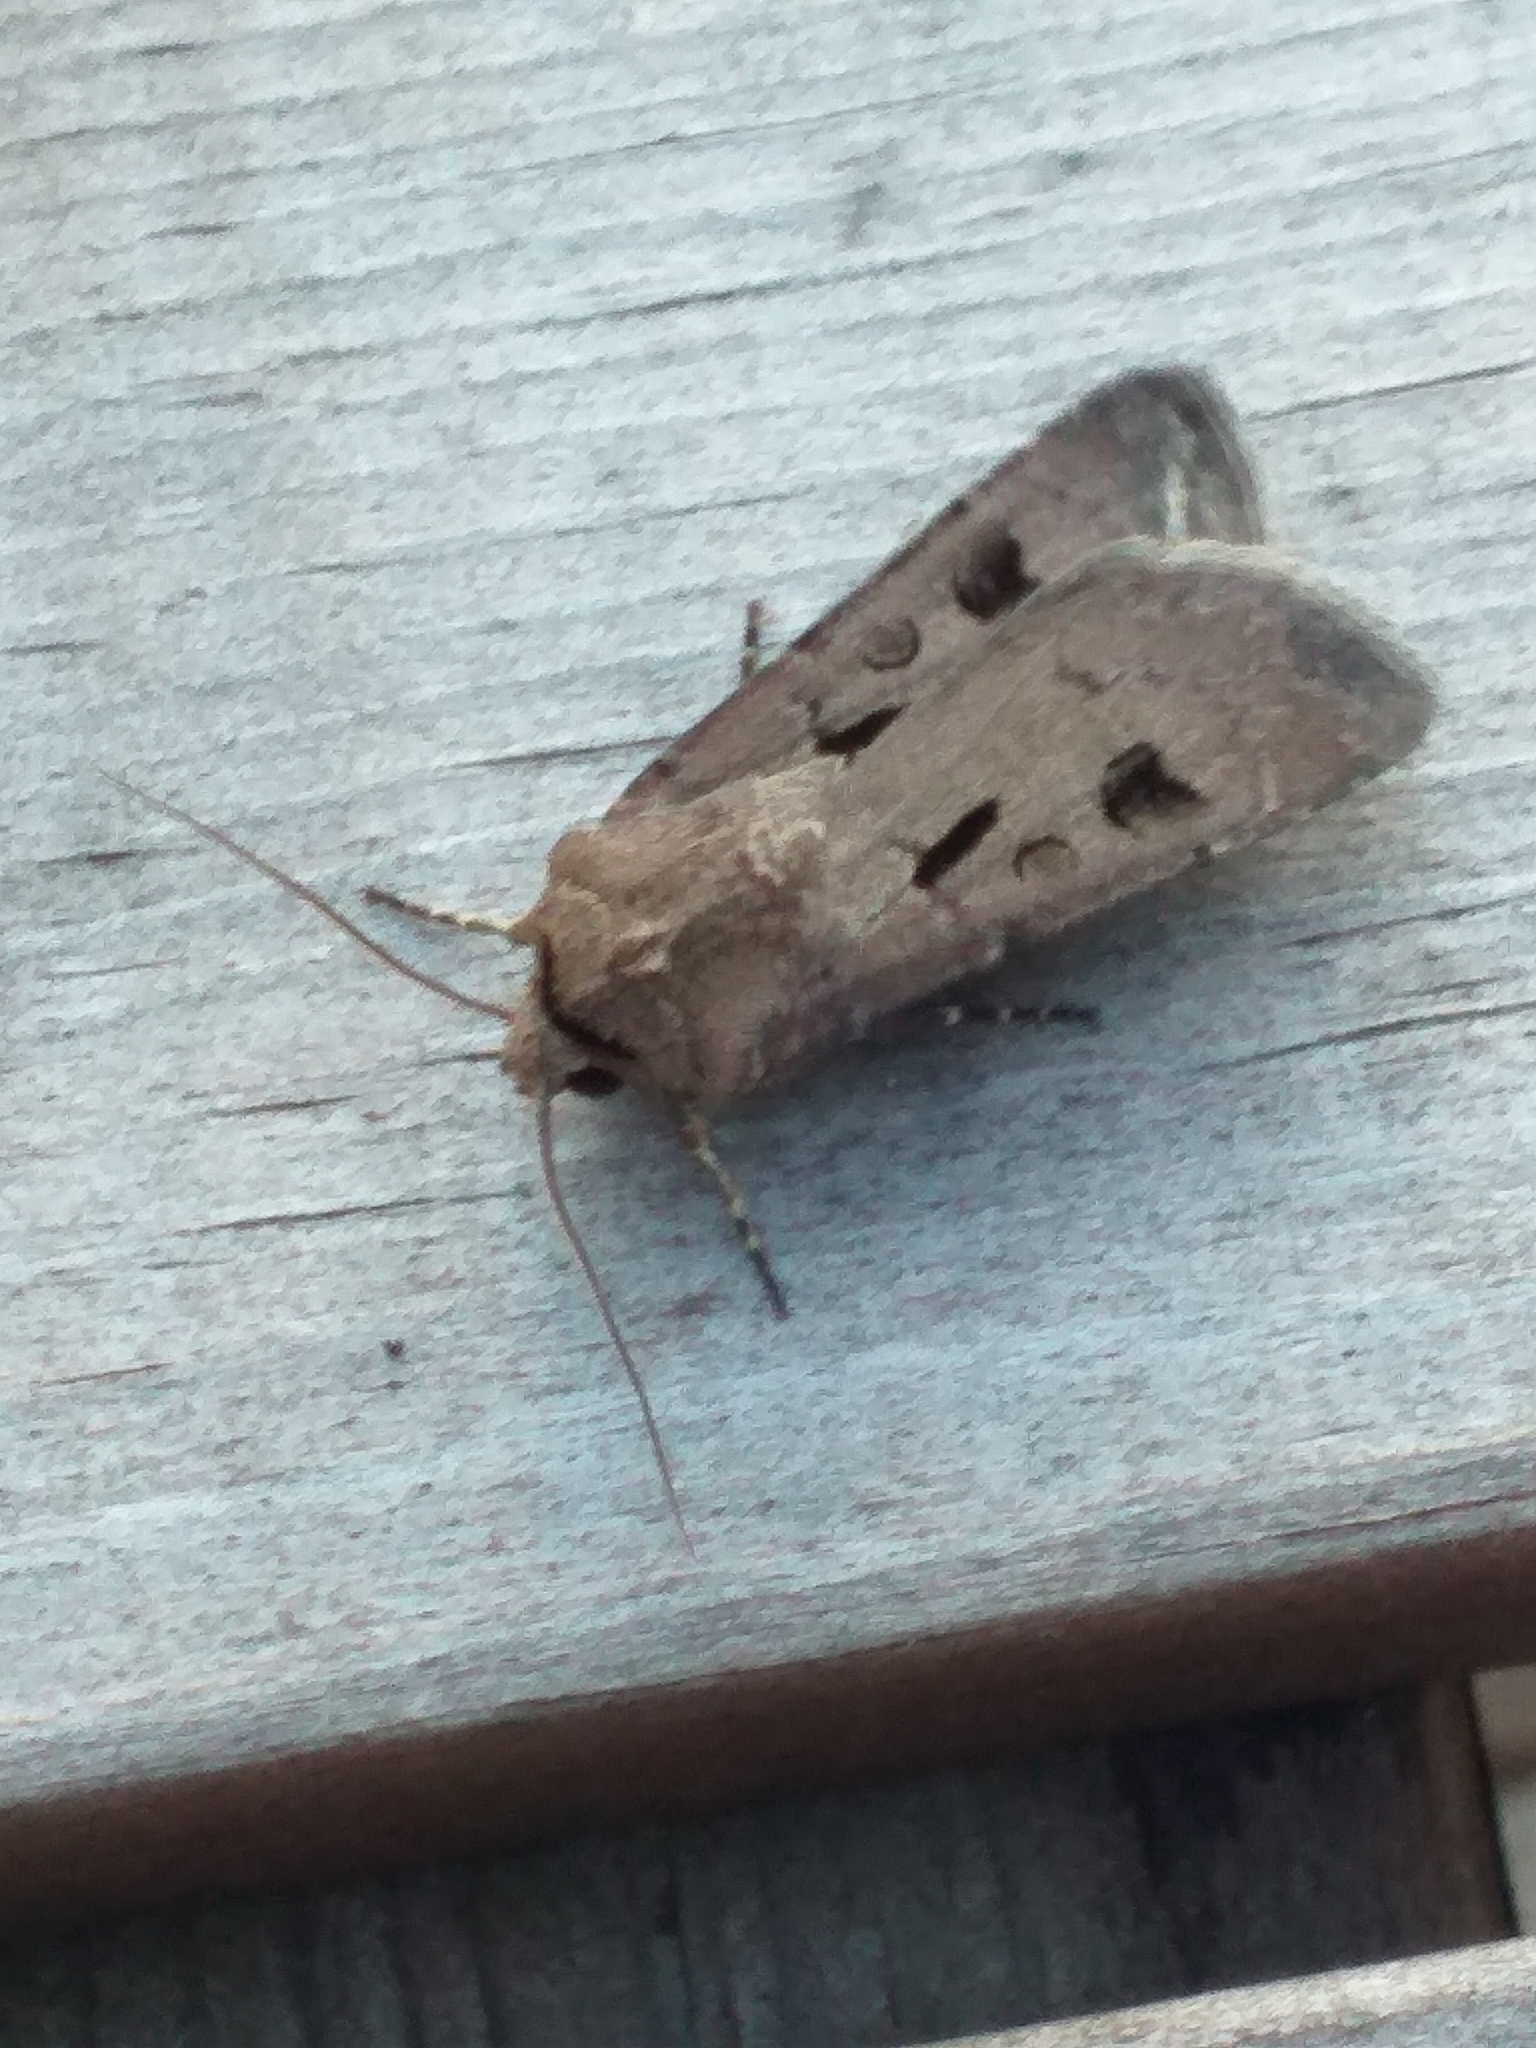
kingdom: Animalia
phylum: Arthropoda
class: Insecta
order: Lepidoptera
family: Noctuidae
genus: Agrotis
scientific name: Agrotis exclamationis
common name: Heart and dart
